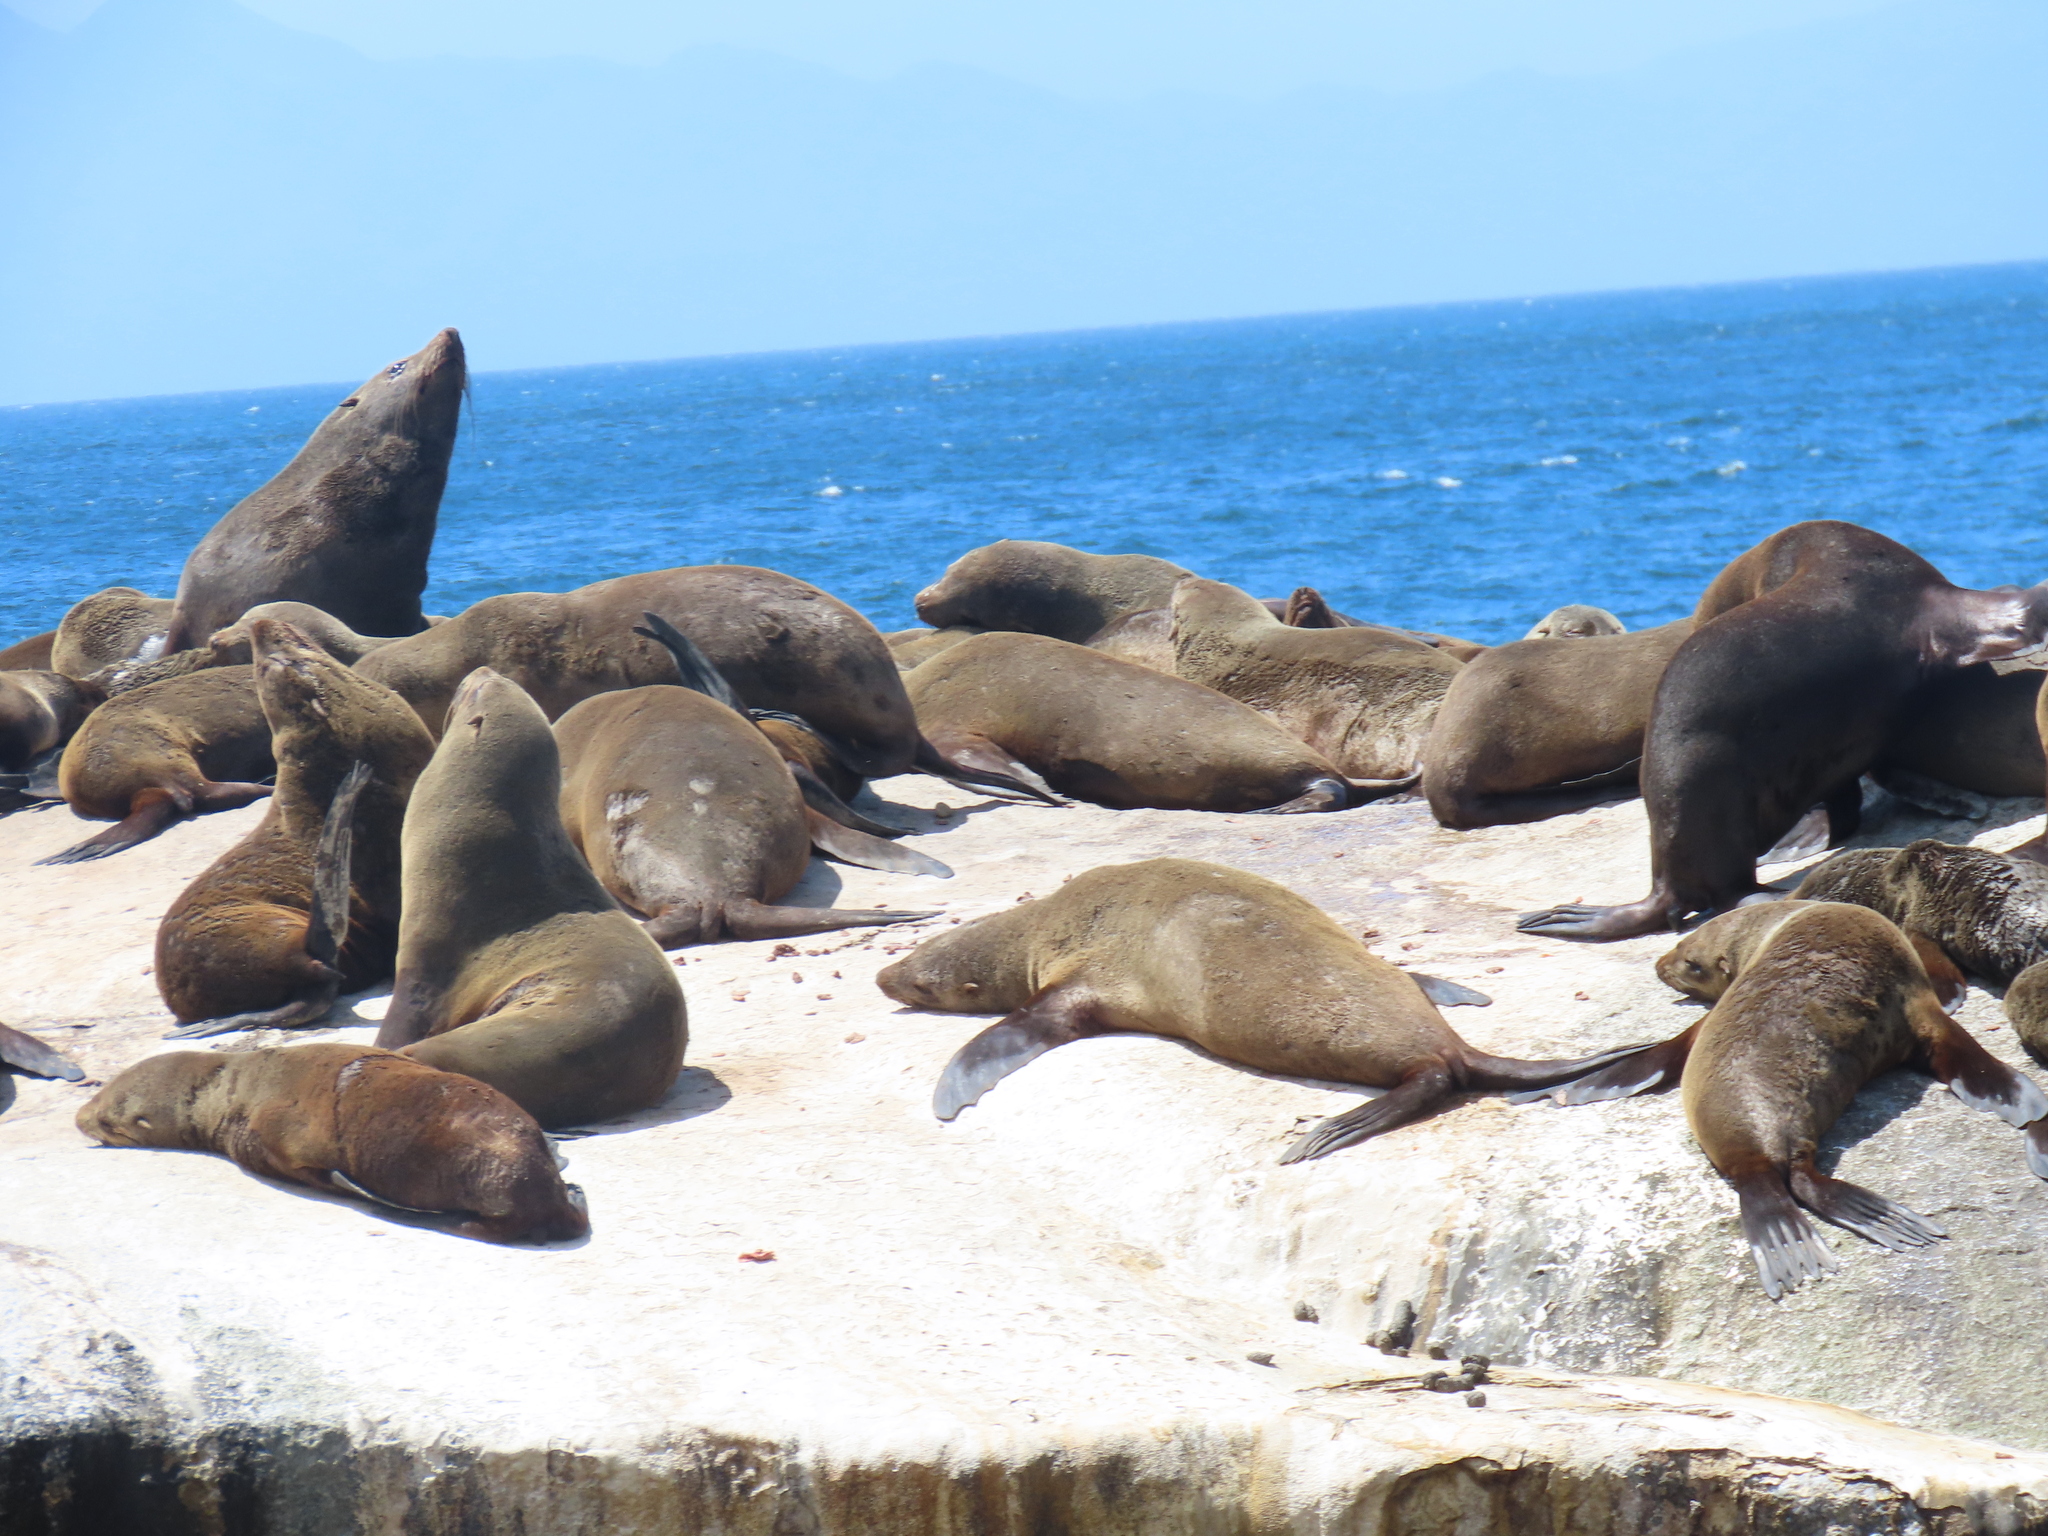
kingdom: Animalia
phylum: Chordata
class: Mammalia
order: Carnivora
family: Otariidae
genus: Arctocephalus
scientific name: Arctocephalus pusillus
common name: Brown fur seal
